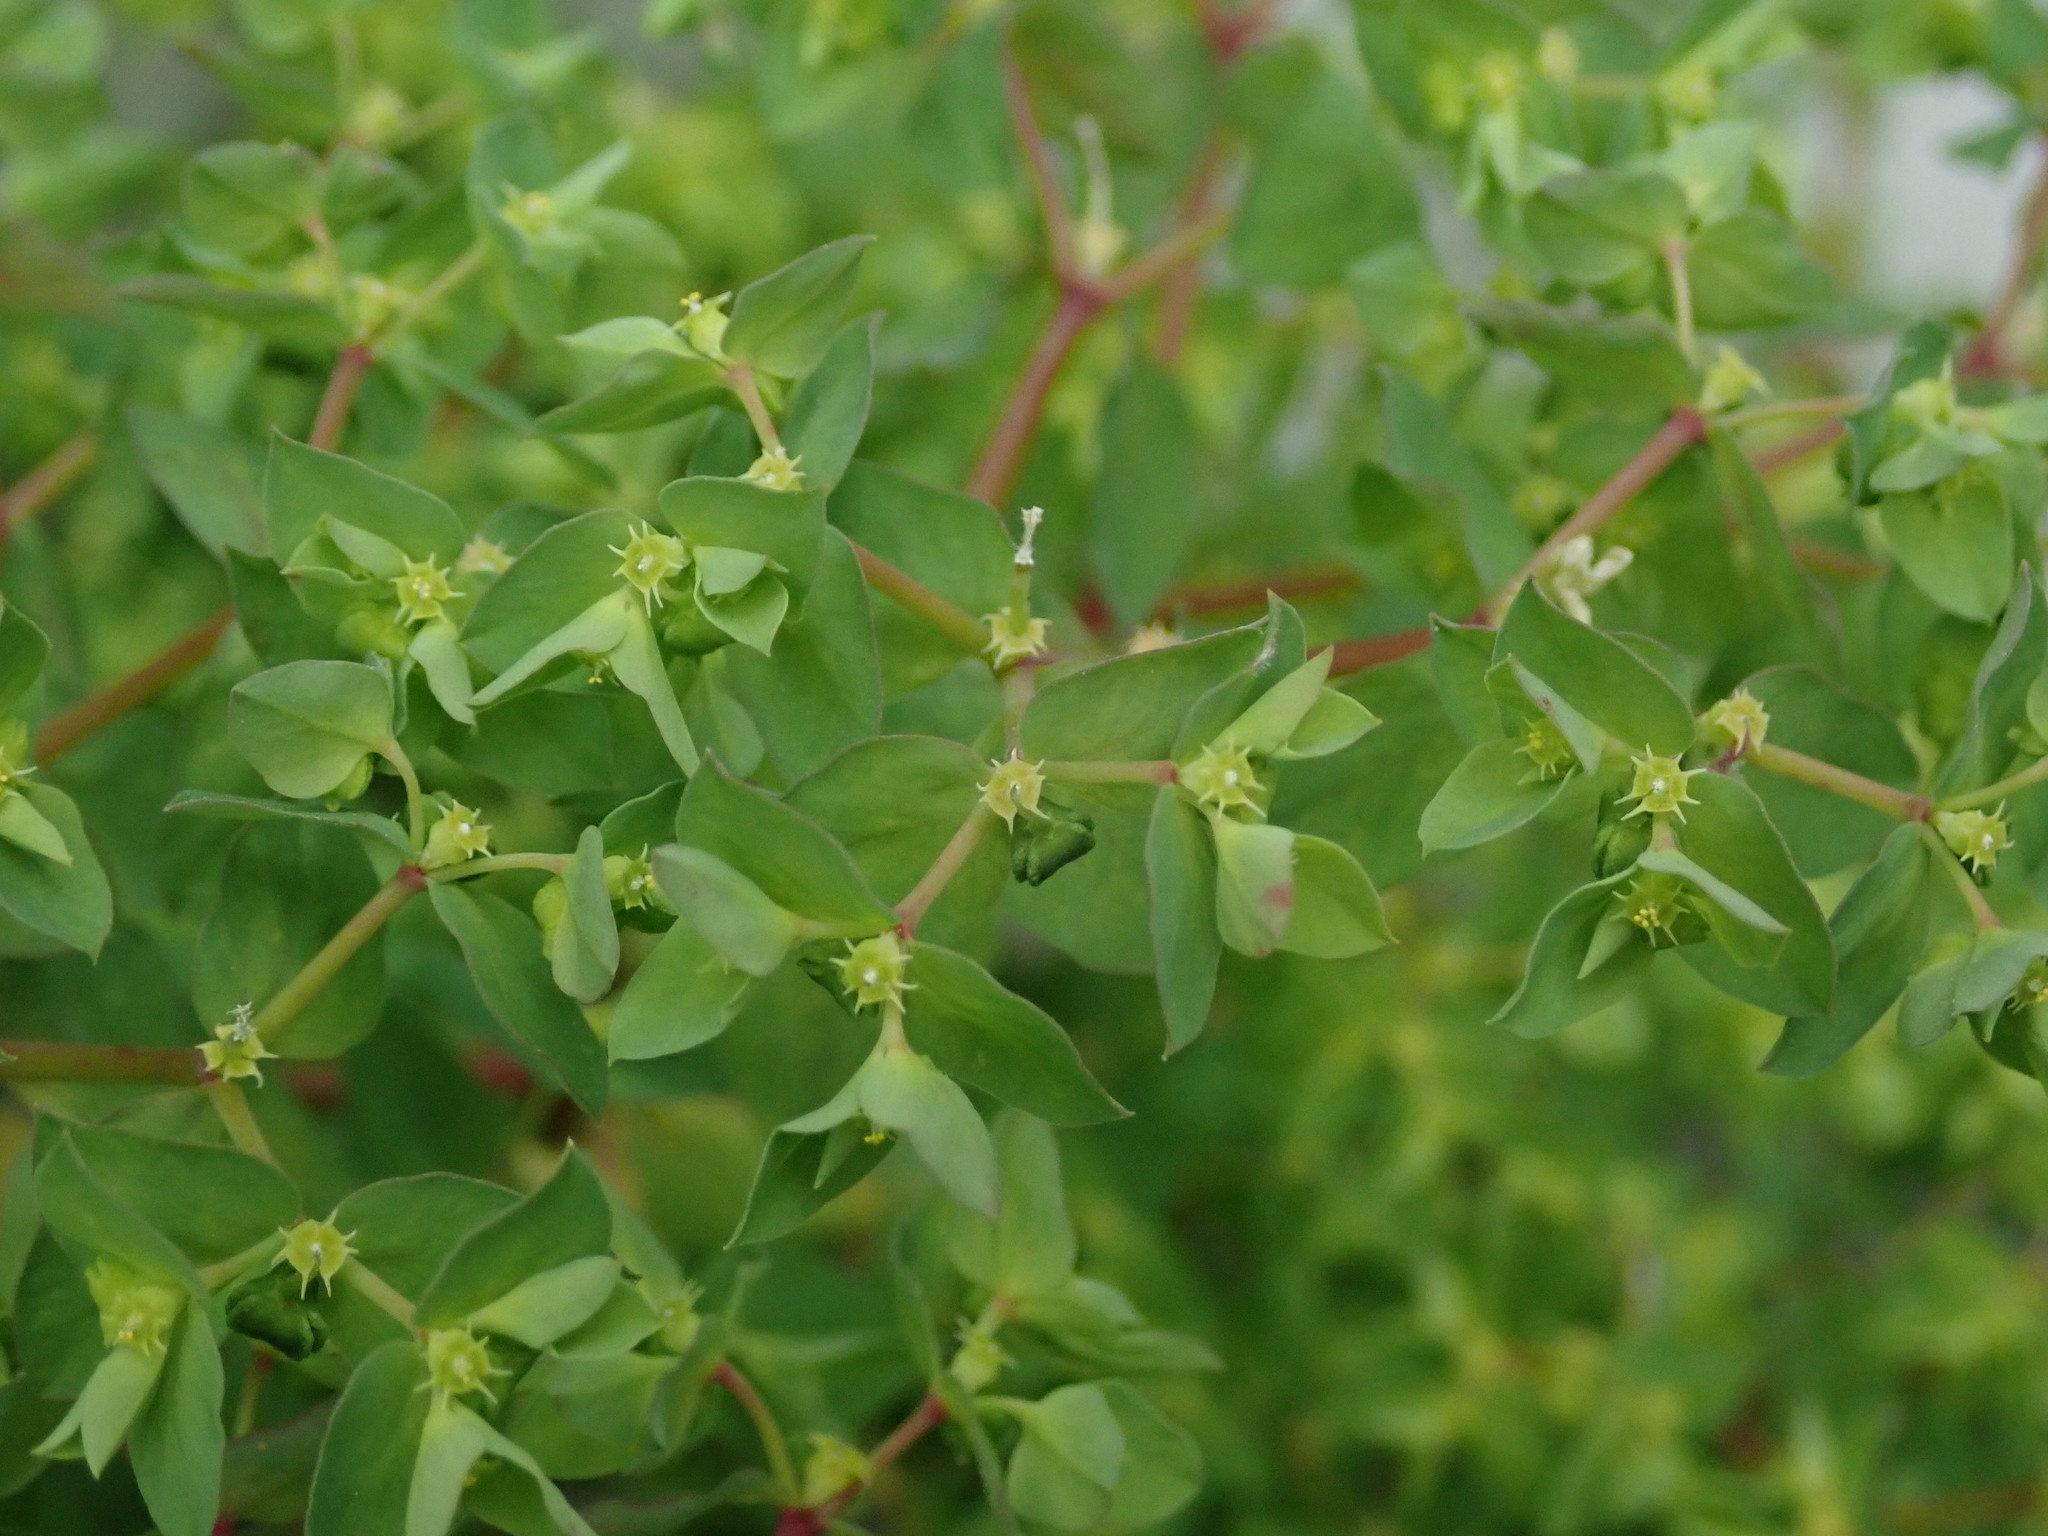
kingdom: Plantae
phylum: Tracheophyta
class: Magnoliopsida
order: Malpighiales
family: Euphorbiaceae
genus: Euphorbia
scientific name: Euphorbia peplus
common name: Petty spurge
